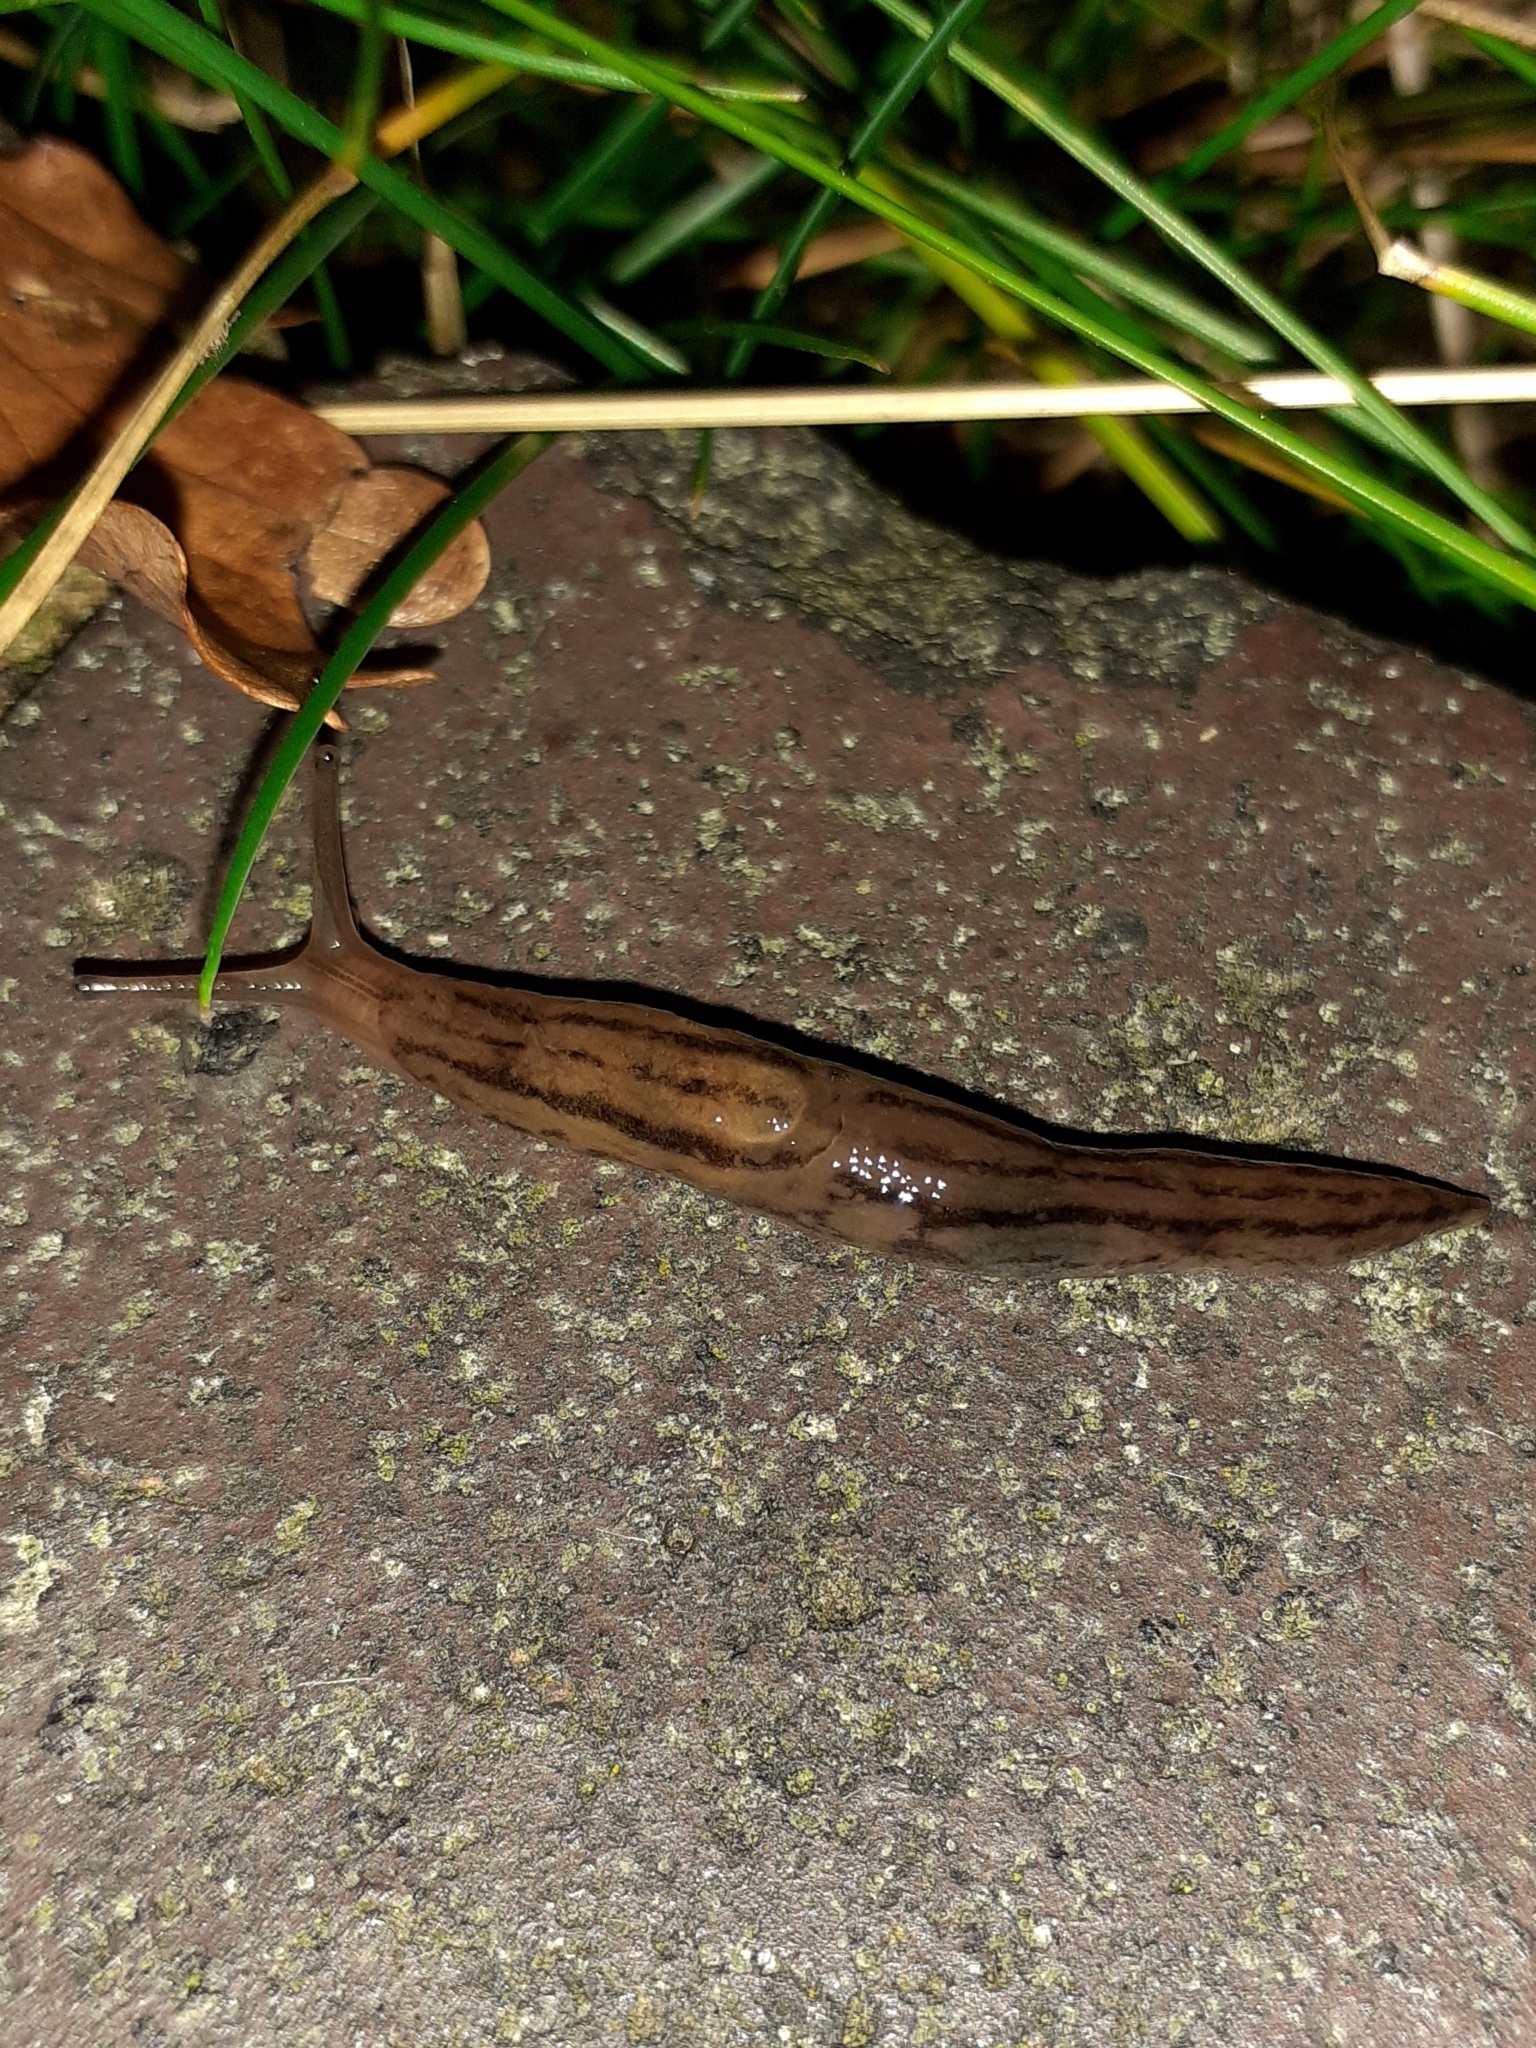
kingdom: Animalia
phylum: Mollusca
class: Gastropoda
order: Stylommatophora
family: Limacidae
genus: Ambigolimax
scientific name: Ambigolimax
